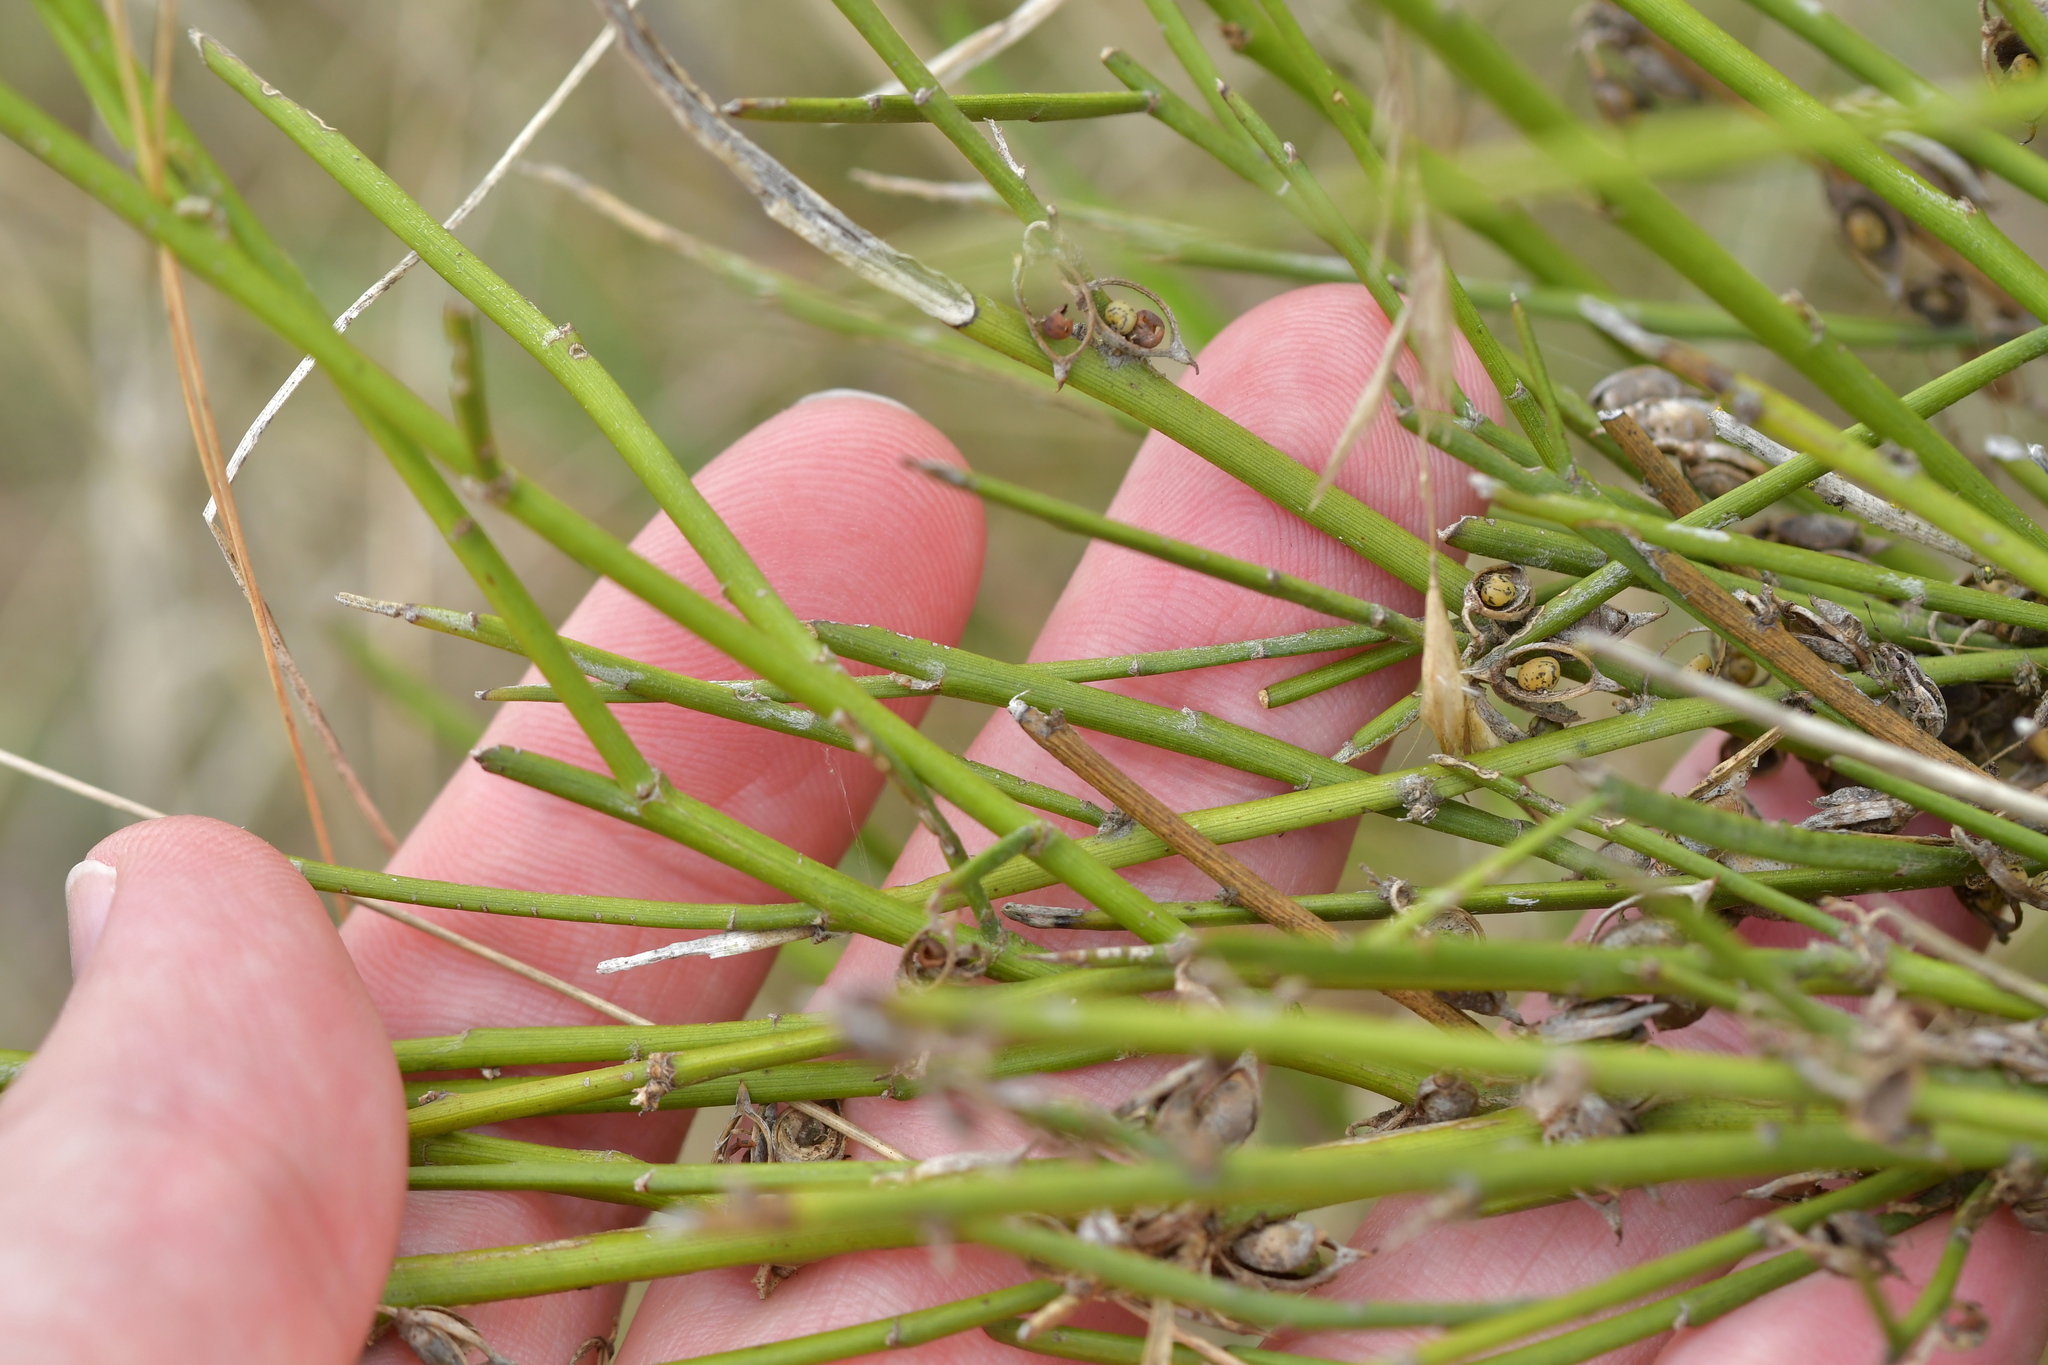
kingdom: Plantae
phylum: Tracheophyta
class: Magnoliopsida
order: Fabales
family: Fabaceae
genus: Carmichaelia
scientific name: Carmichaelia australis
